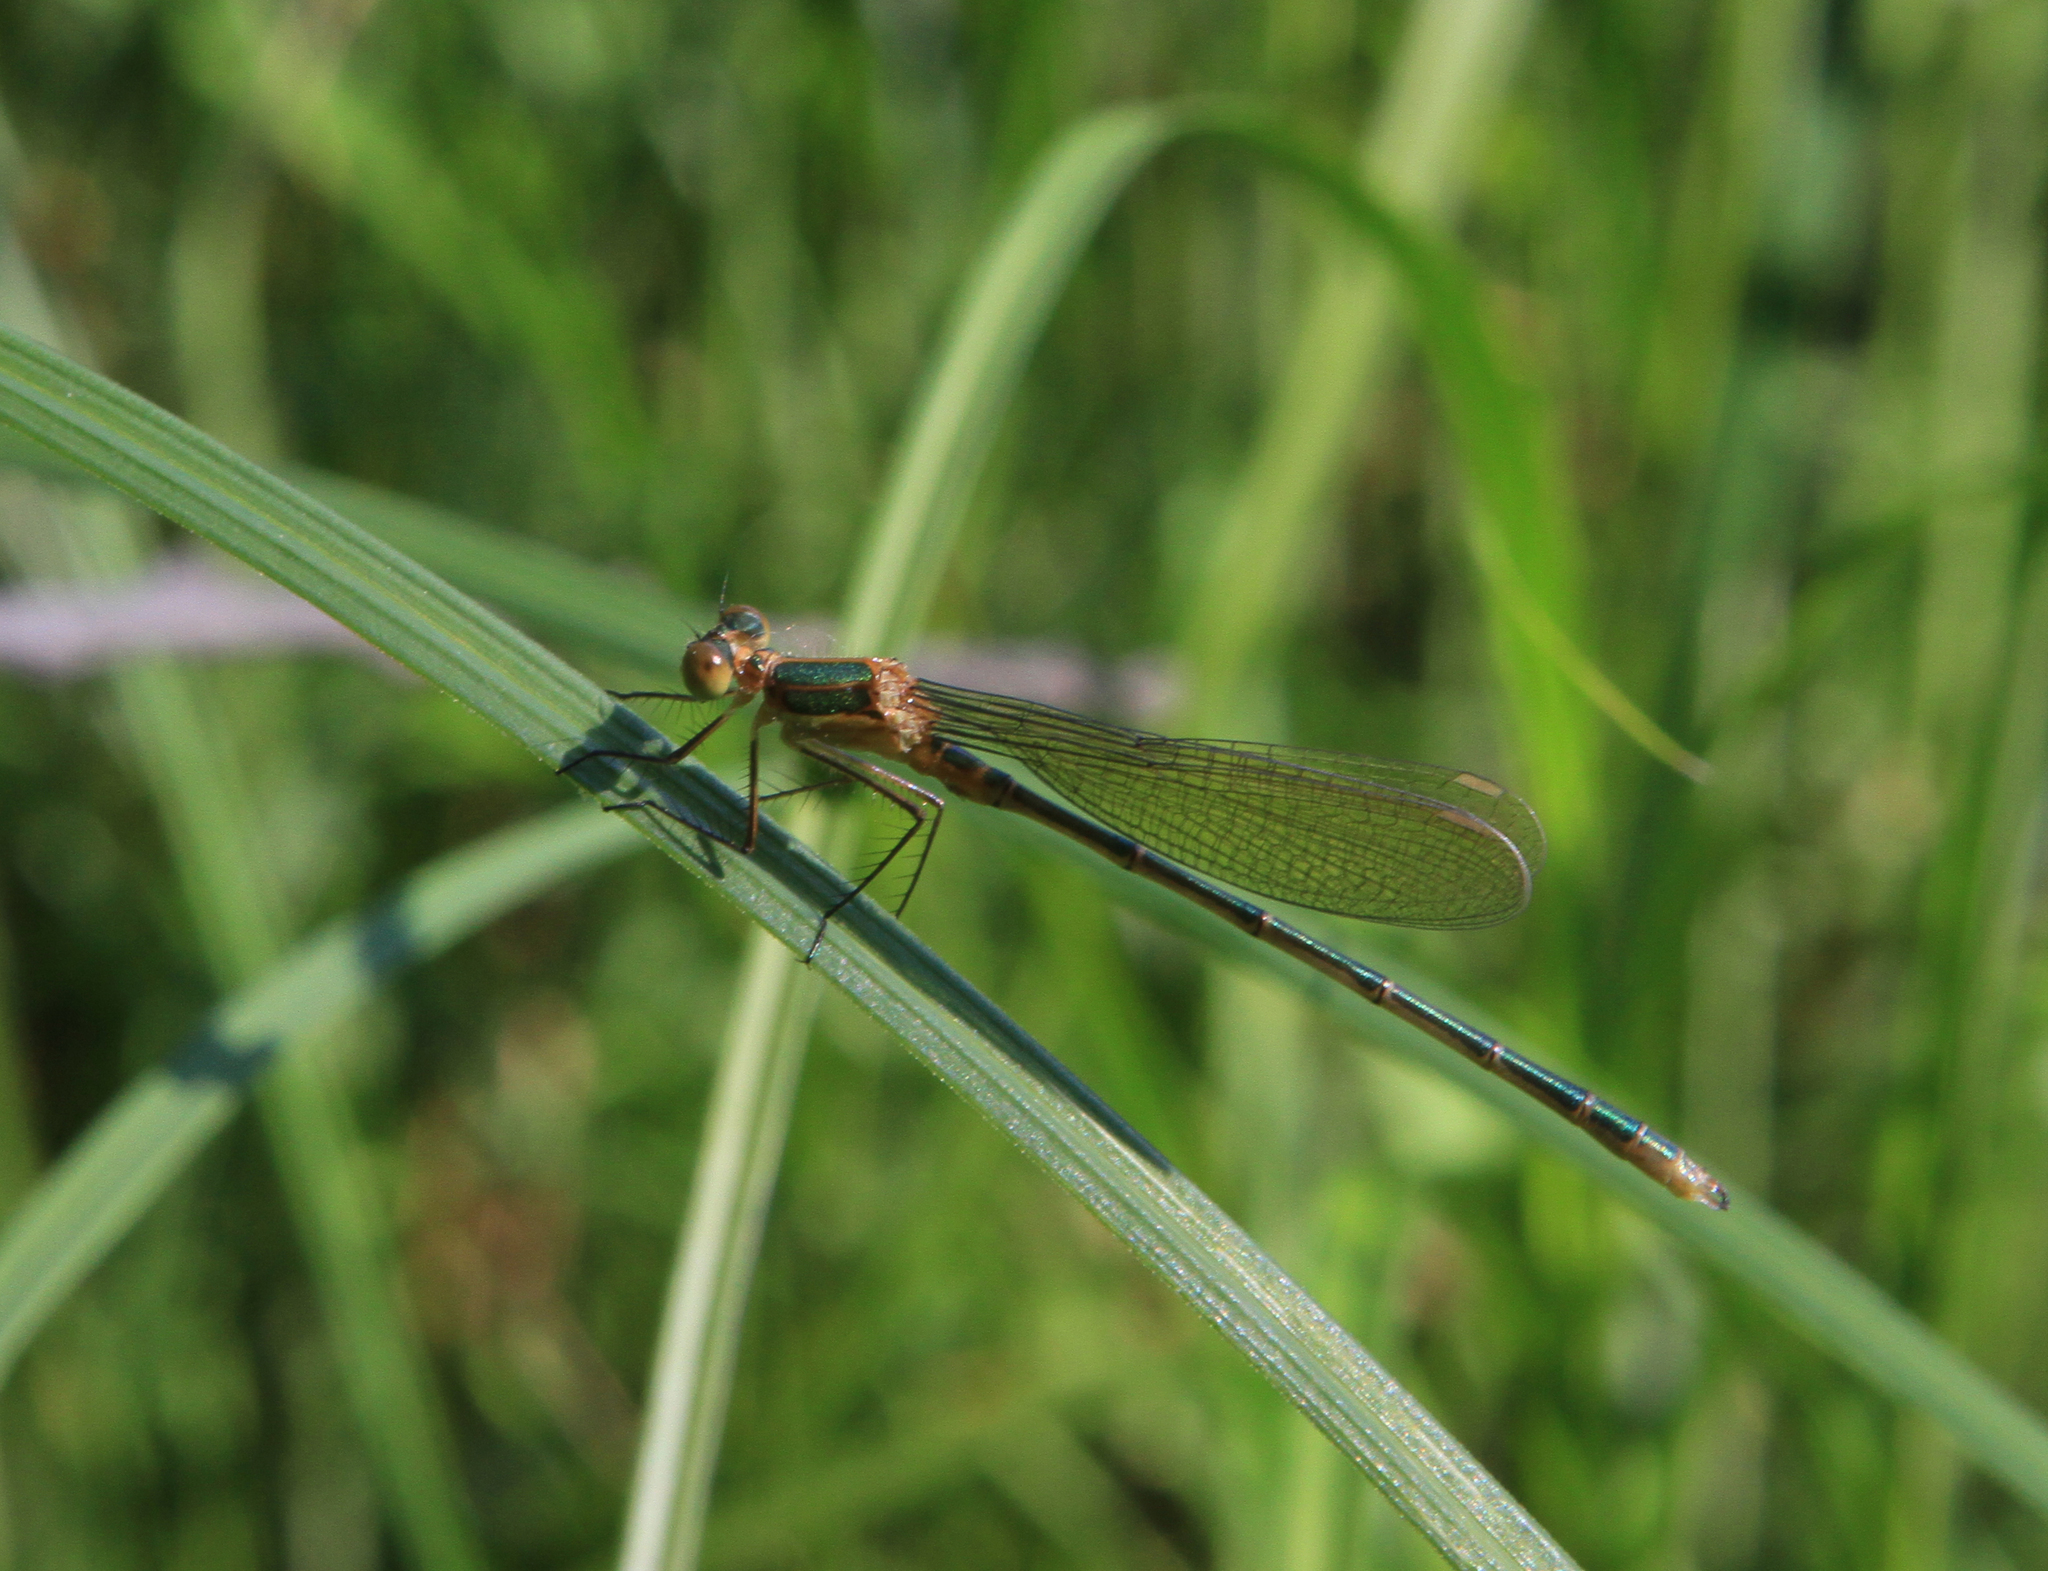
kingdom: Animalia
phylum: Arthropoda
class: Insecta
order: Odonata
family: Lestidae
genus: Lestes
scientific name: Lestes sponsa
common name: Common spreadwing
